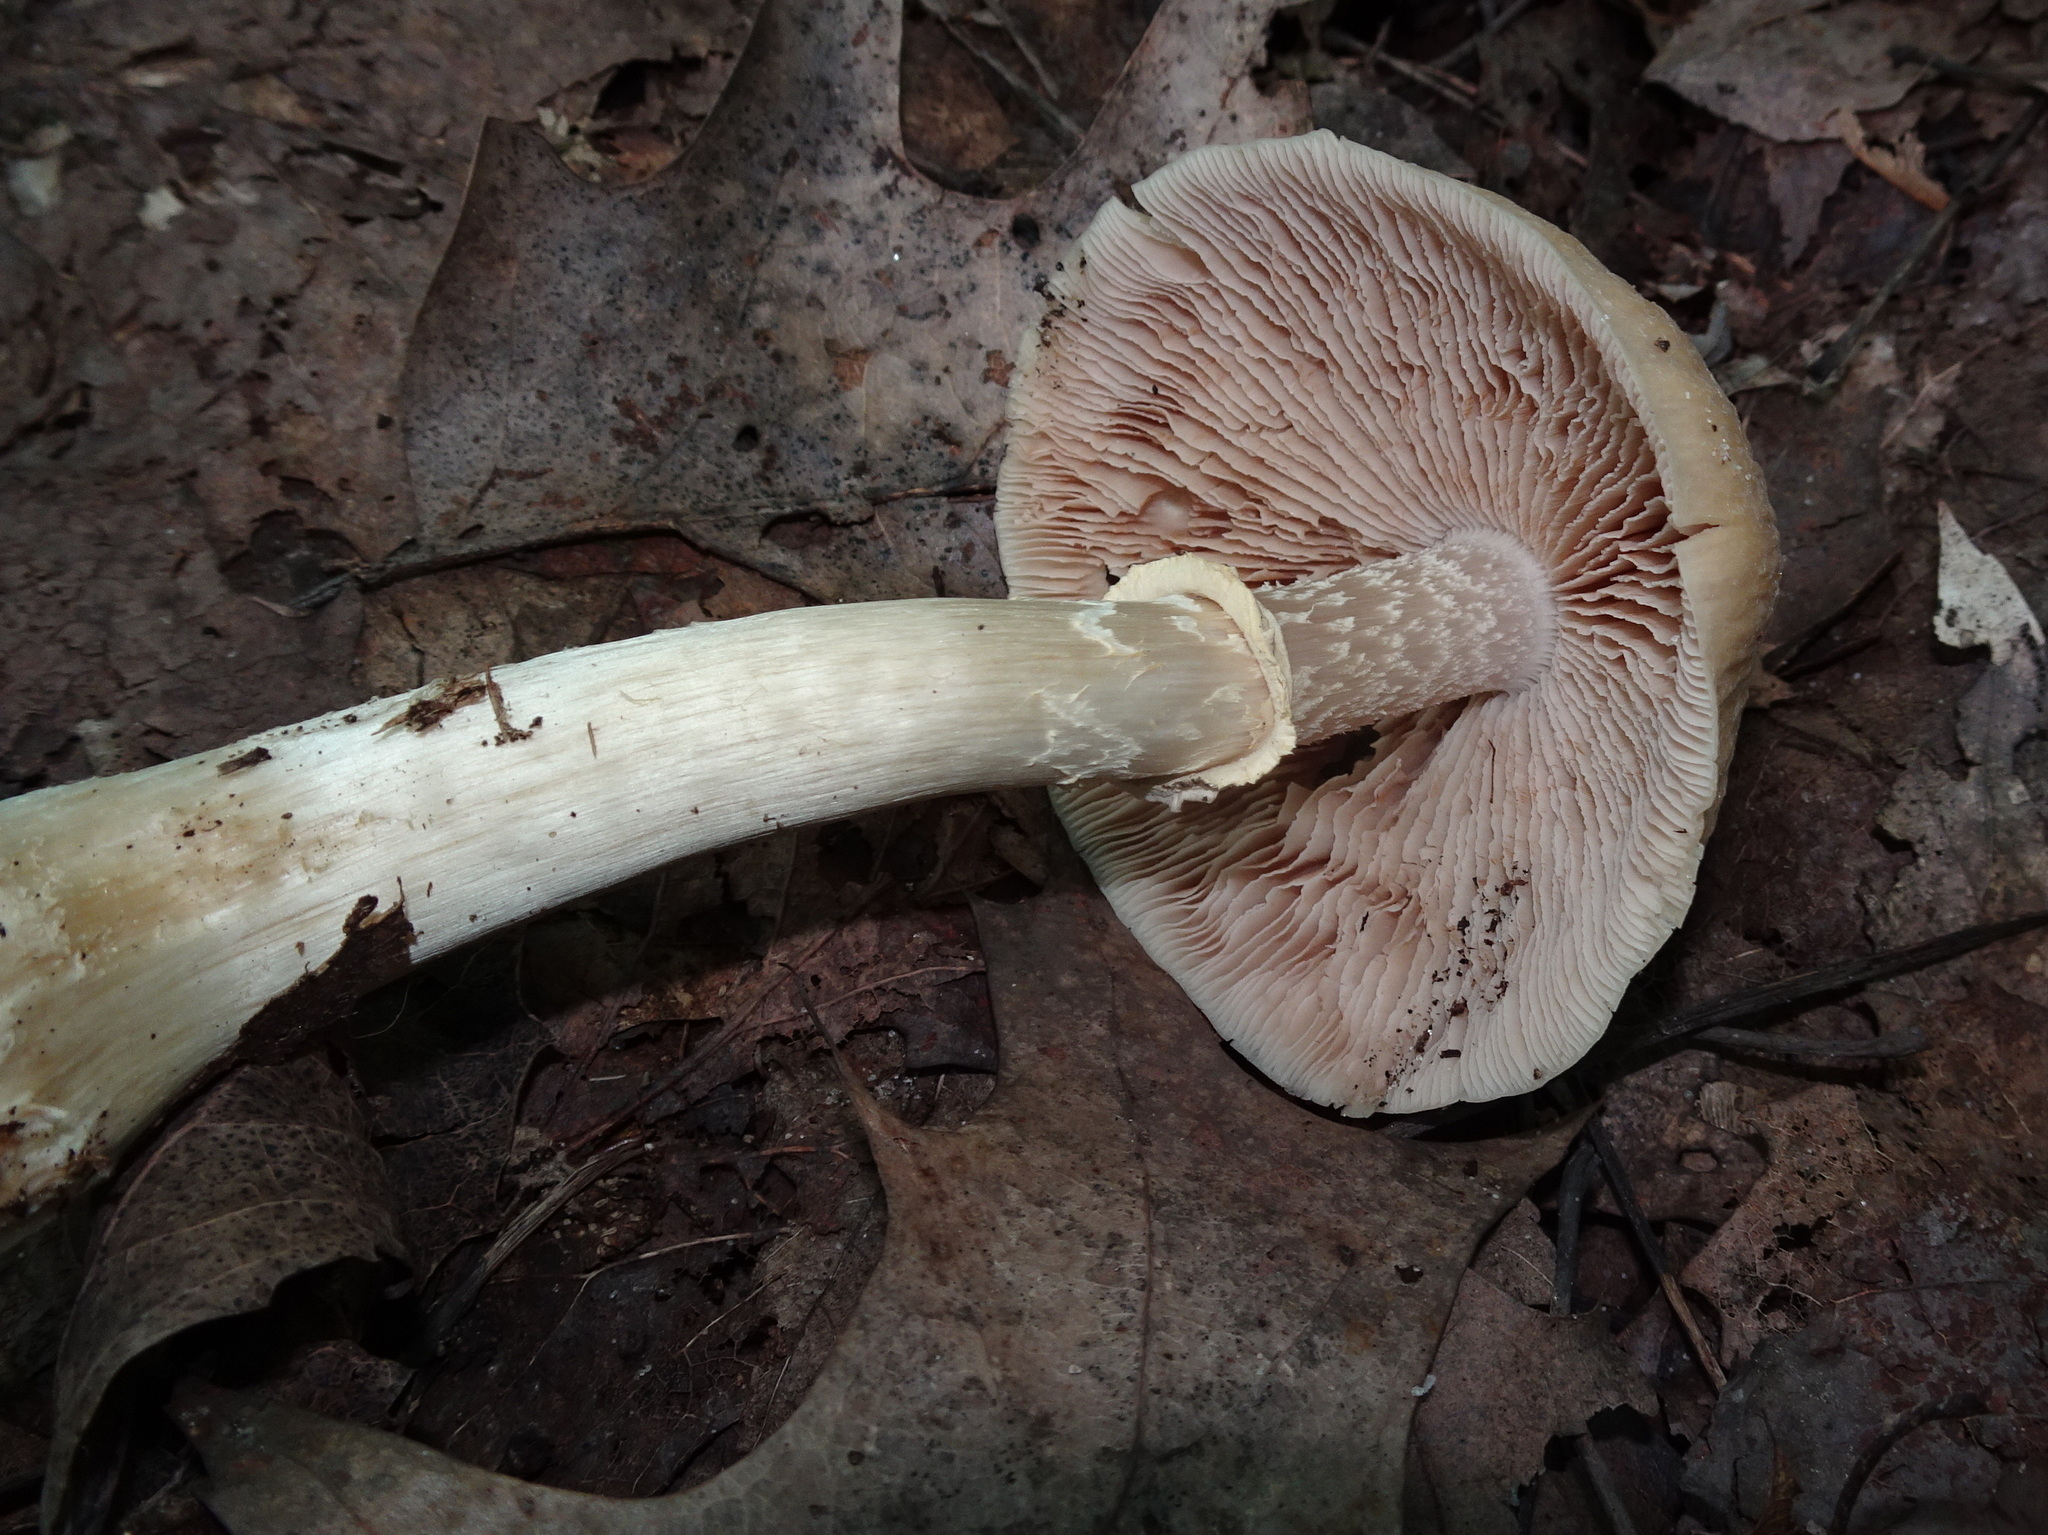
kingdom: Fungi
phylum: Basidiomycota
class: Agaricomycetes
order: Agaricales
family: Cortinariaceae
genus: Cortinarius
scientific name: Cortinarius caperatus
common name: The gypsy
